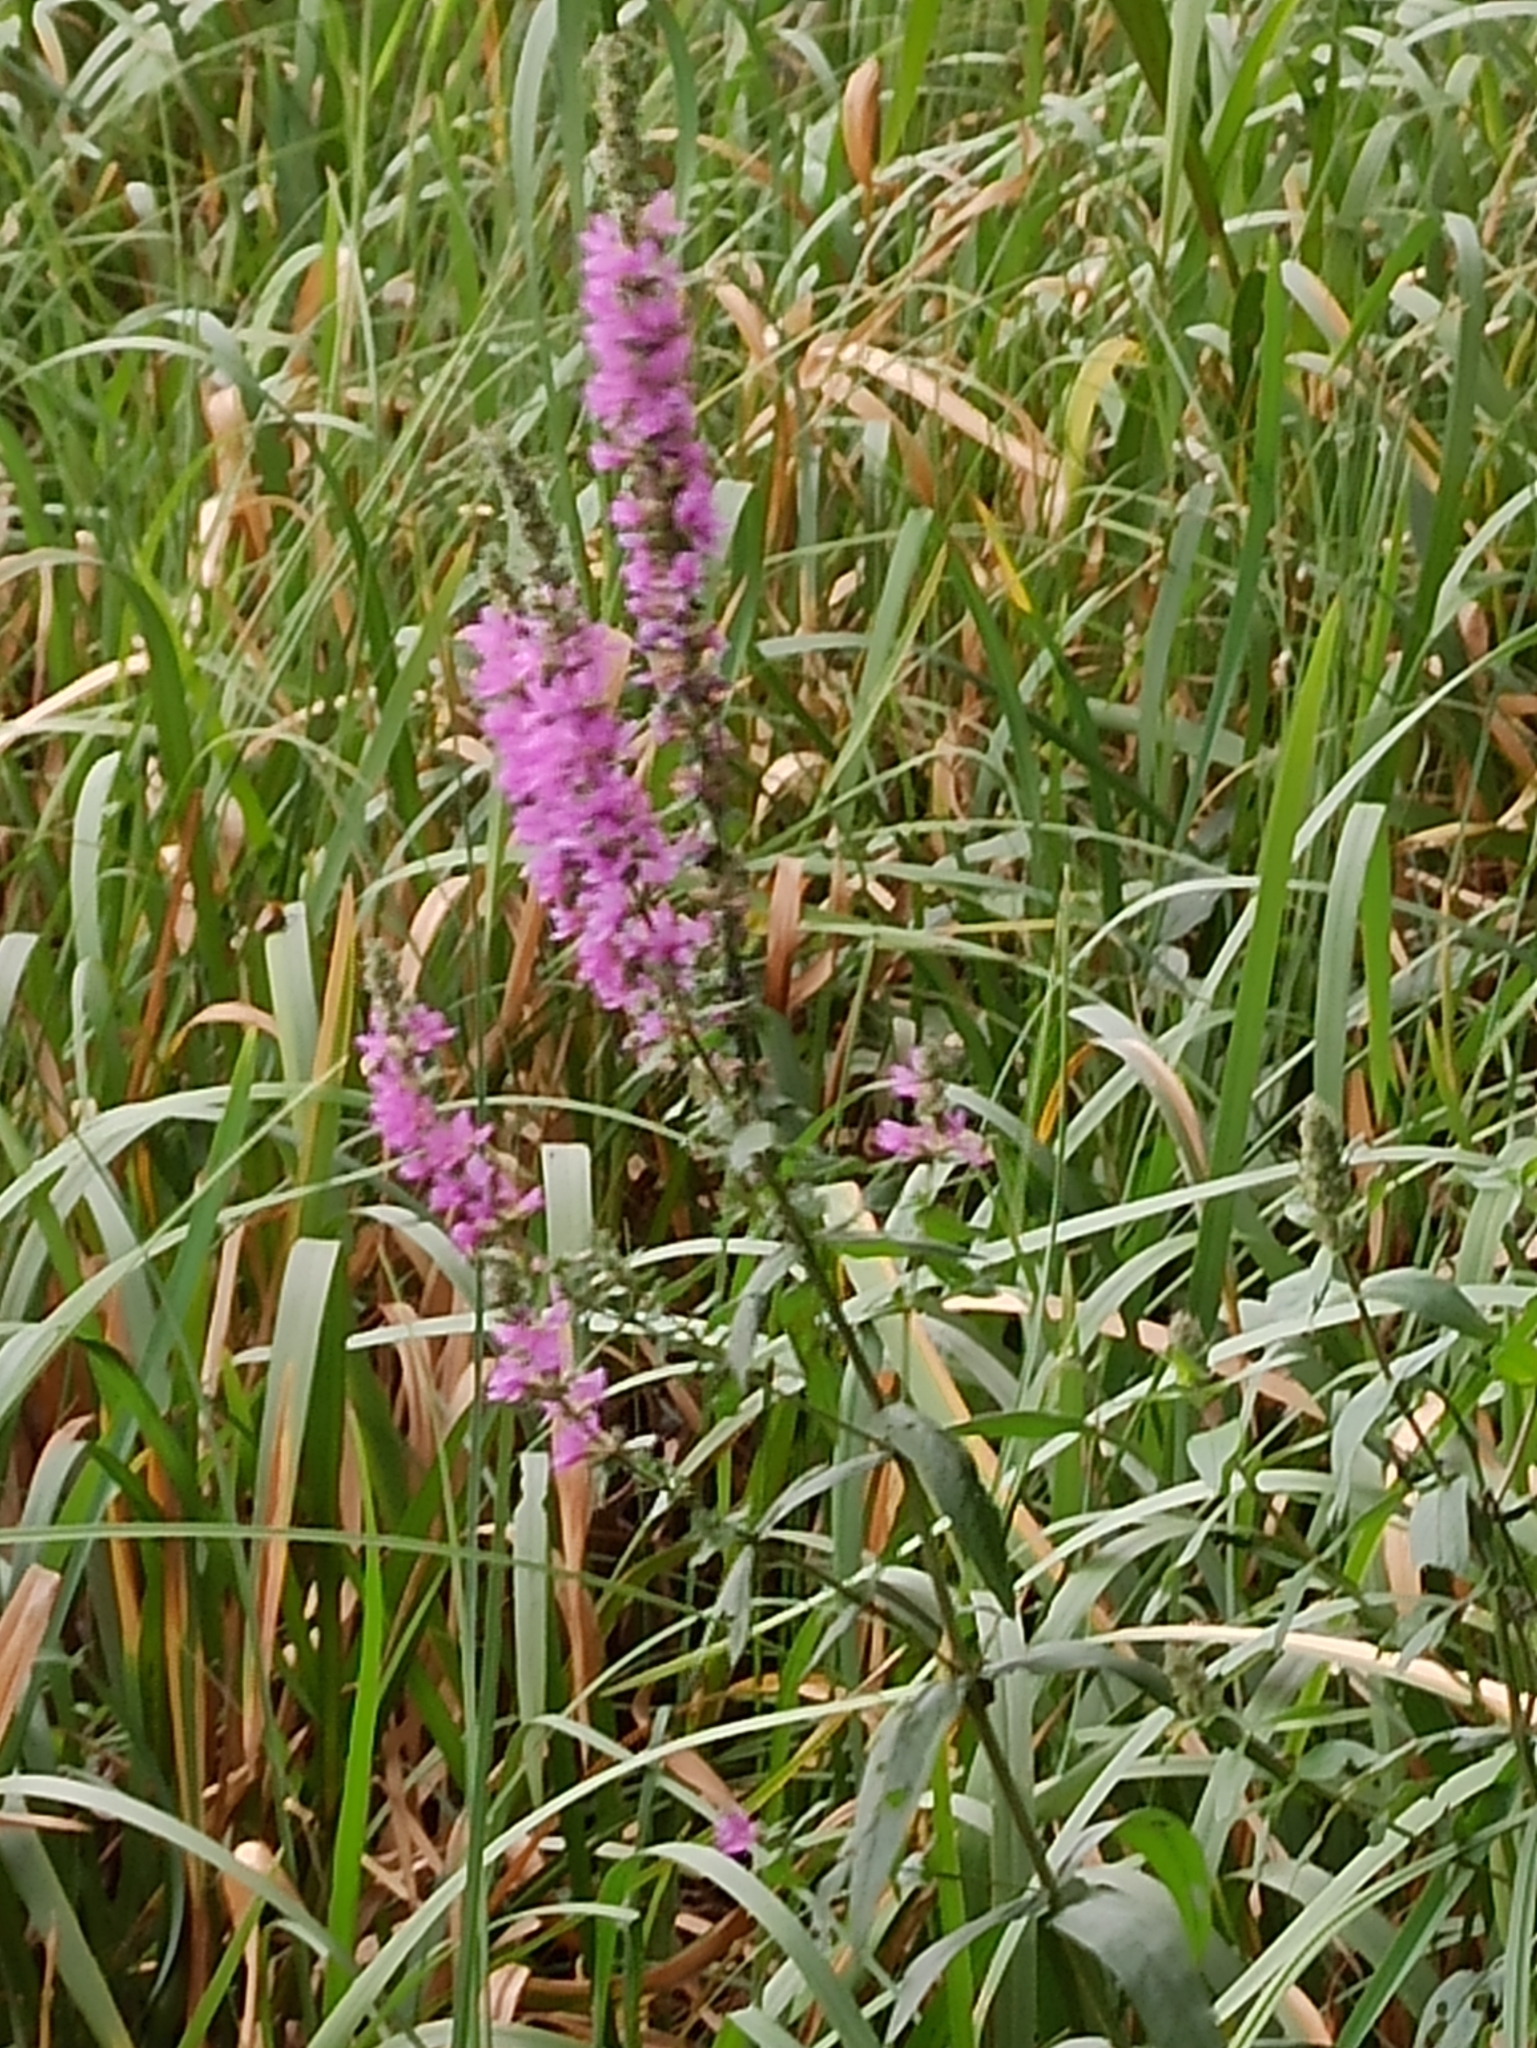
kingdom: Plantae
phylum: Tracheophyta
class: Magnoliopsida
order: Myrtales
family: Lythraceae
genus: Lythrum
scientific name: Lythrum salicaria
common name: Purple loosestrife
